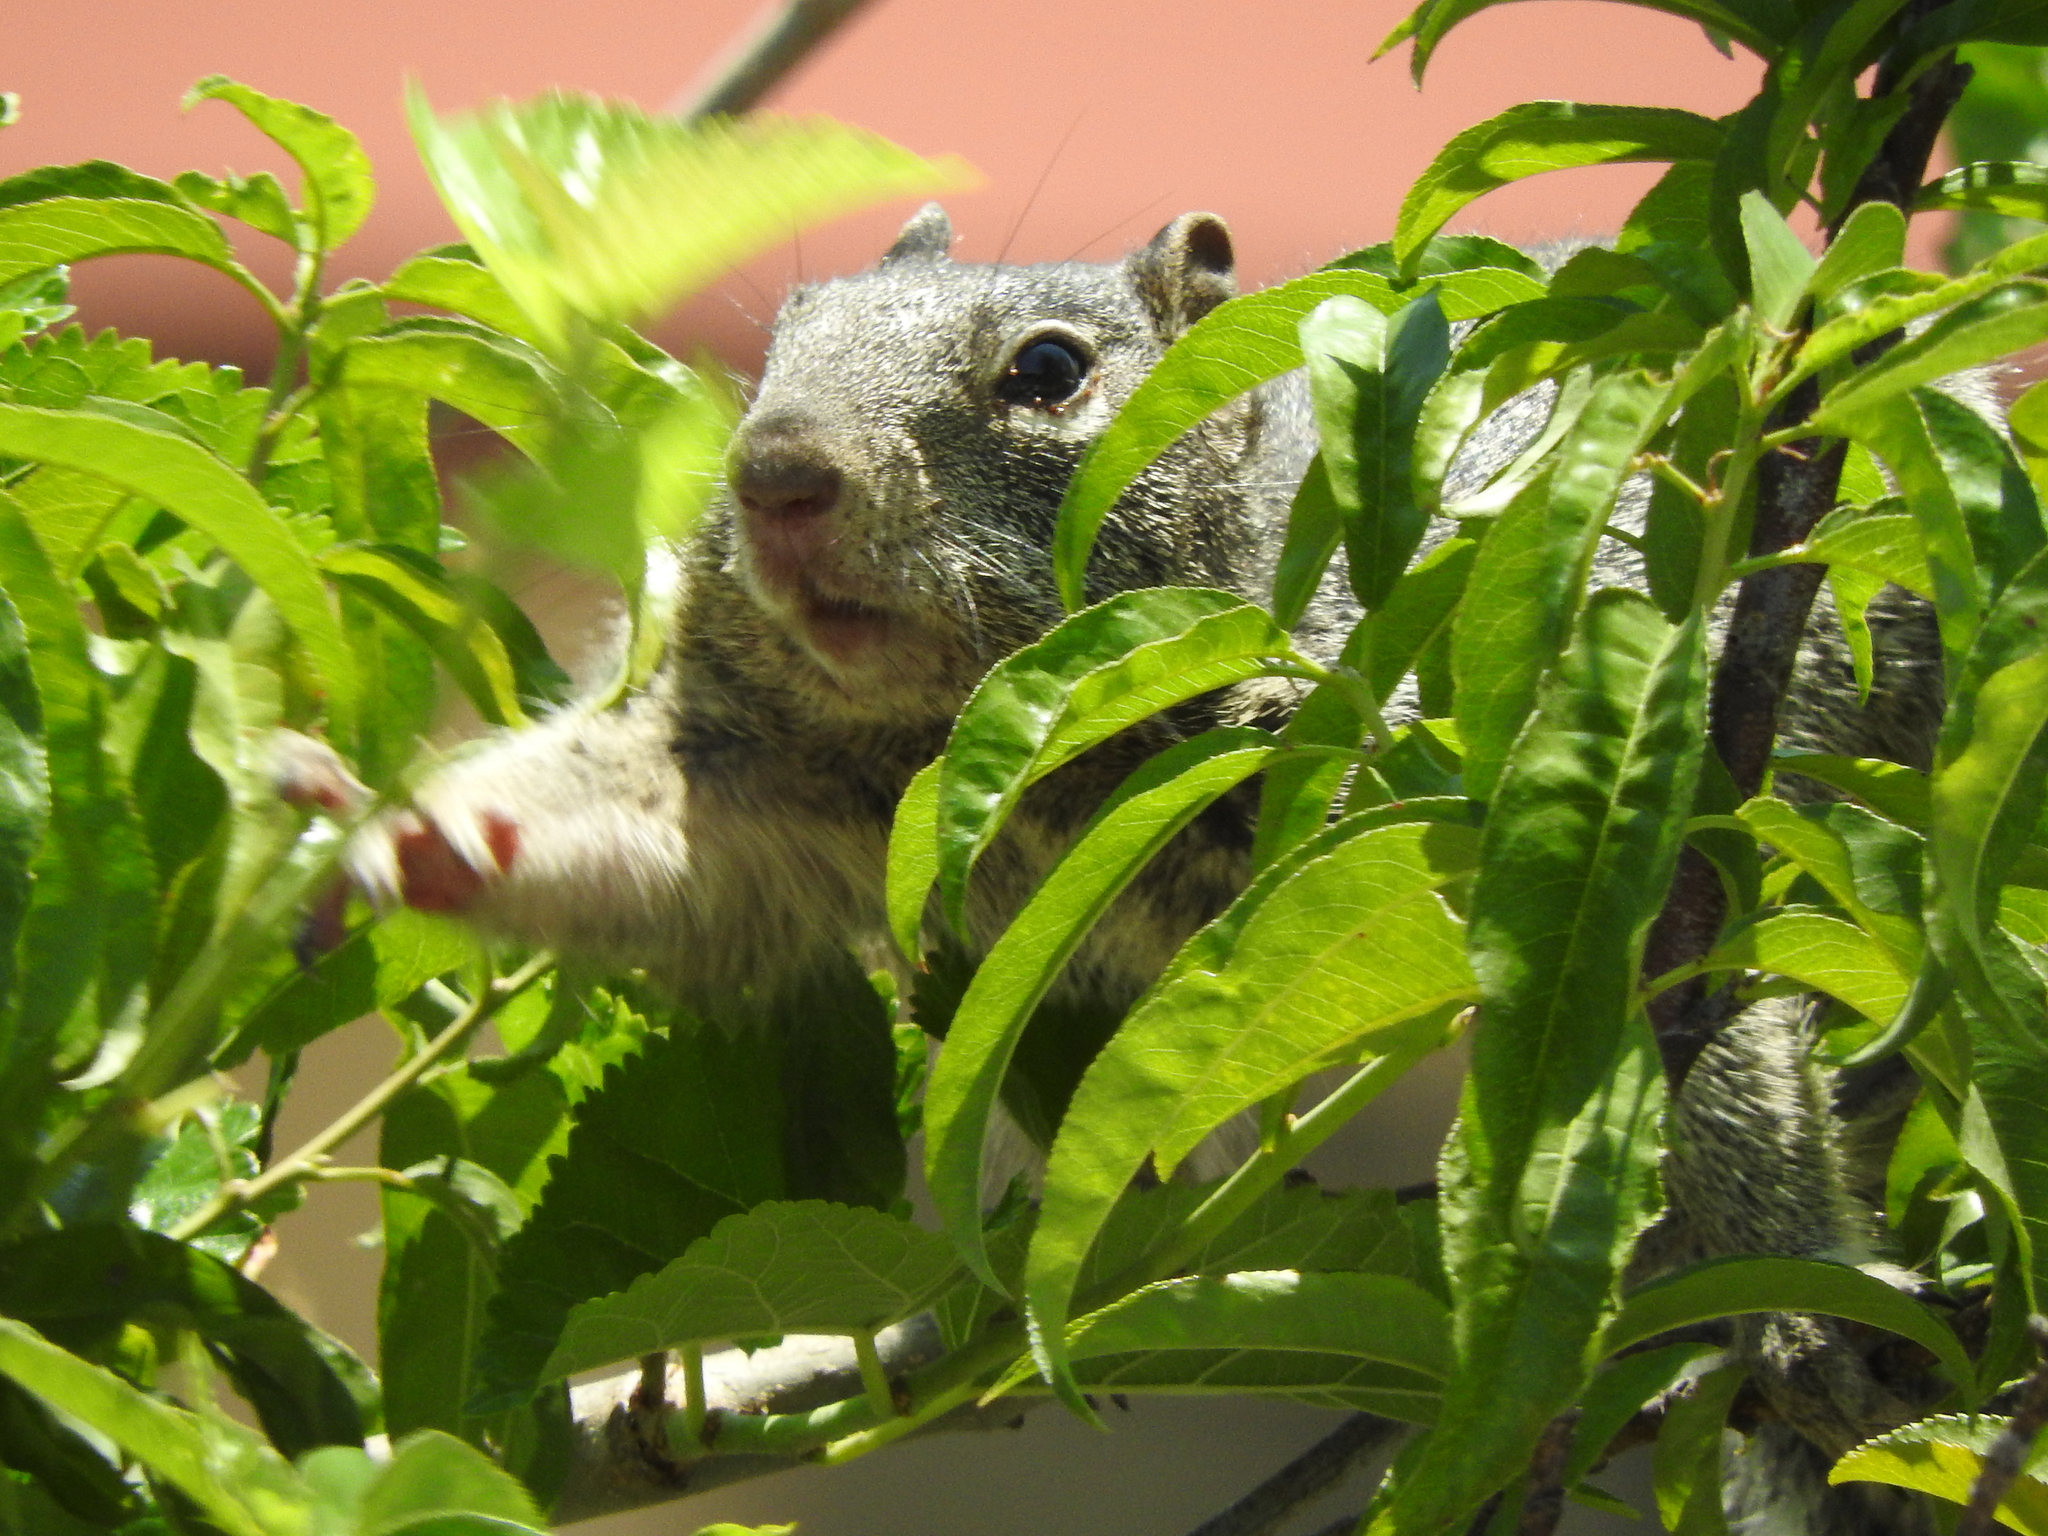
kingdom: Animalia
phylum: Chordata
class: Mammalia
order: Rodentia
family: Sciuridae
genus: Otospermophilus
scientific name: Otospermophilus variegatus
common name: Rock squirrel
